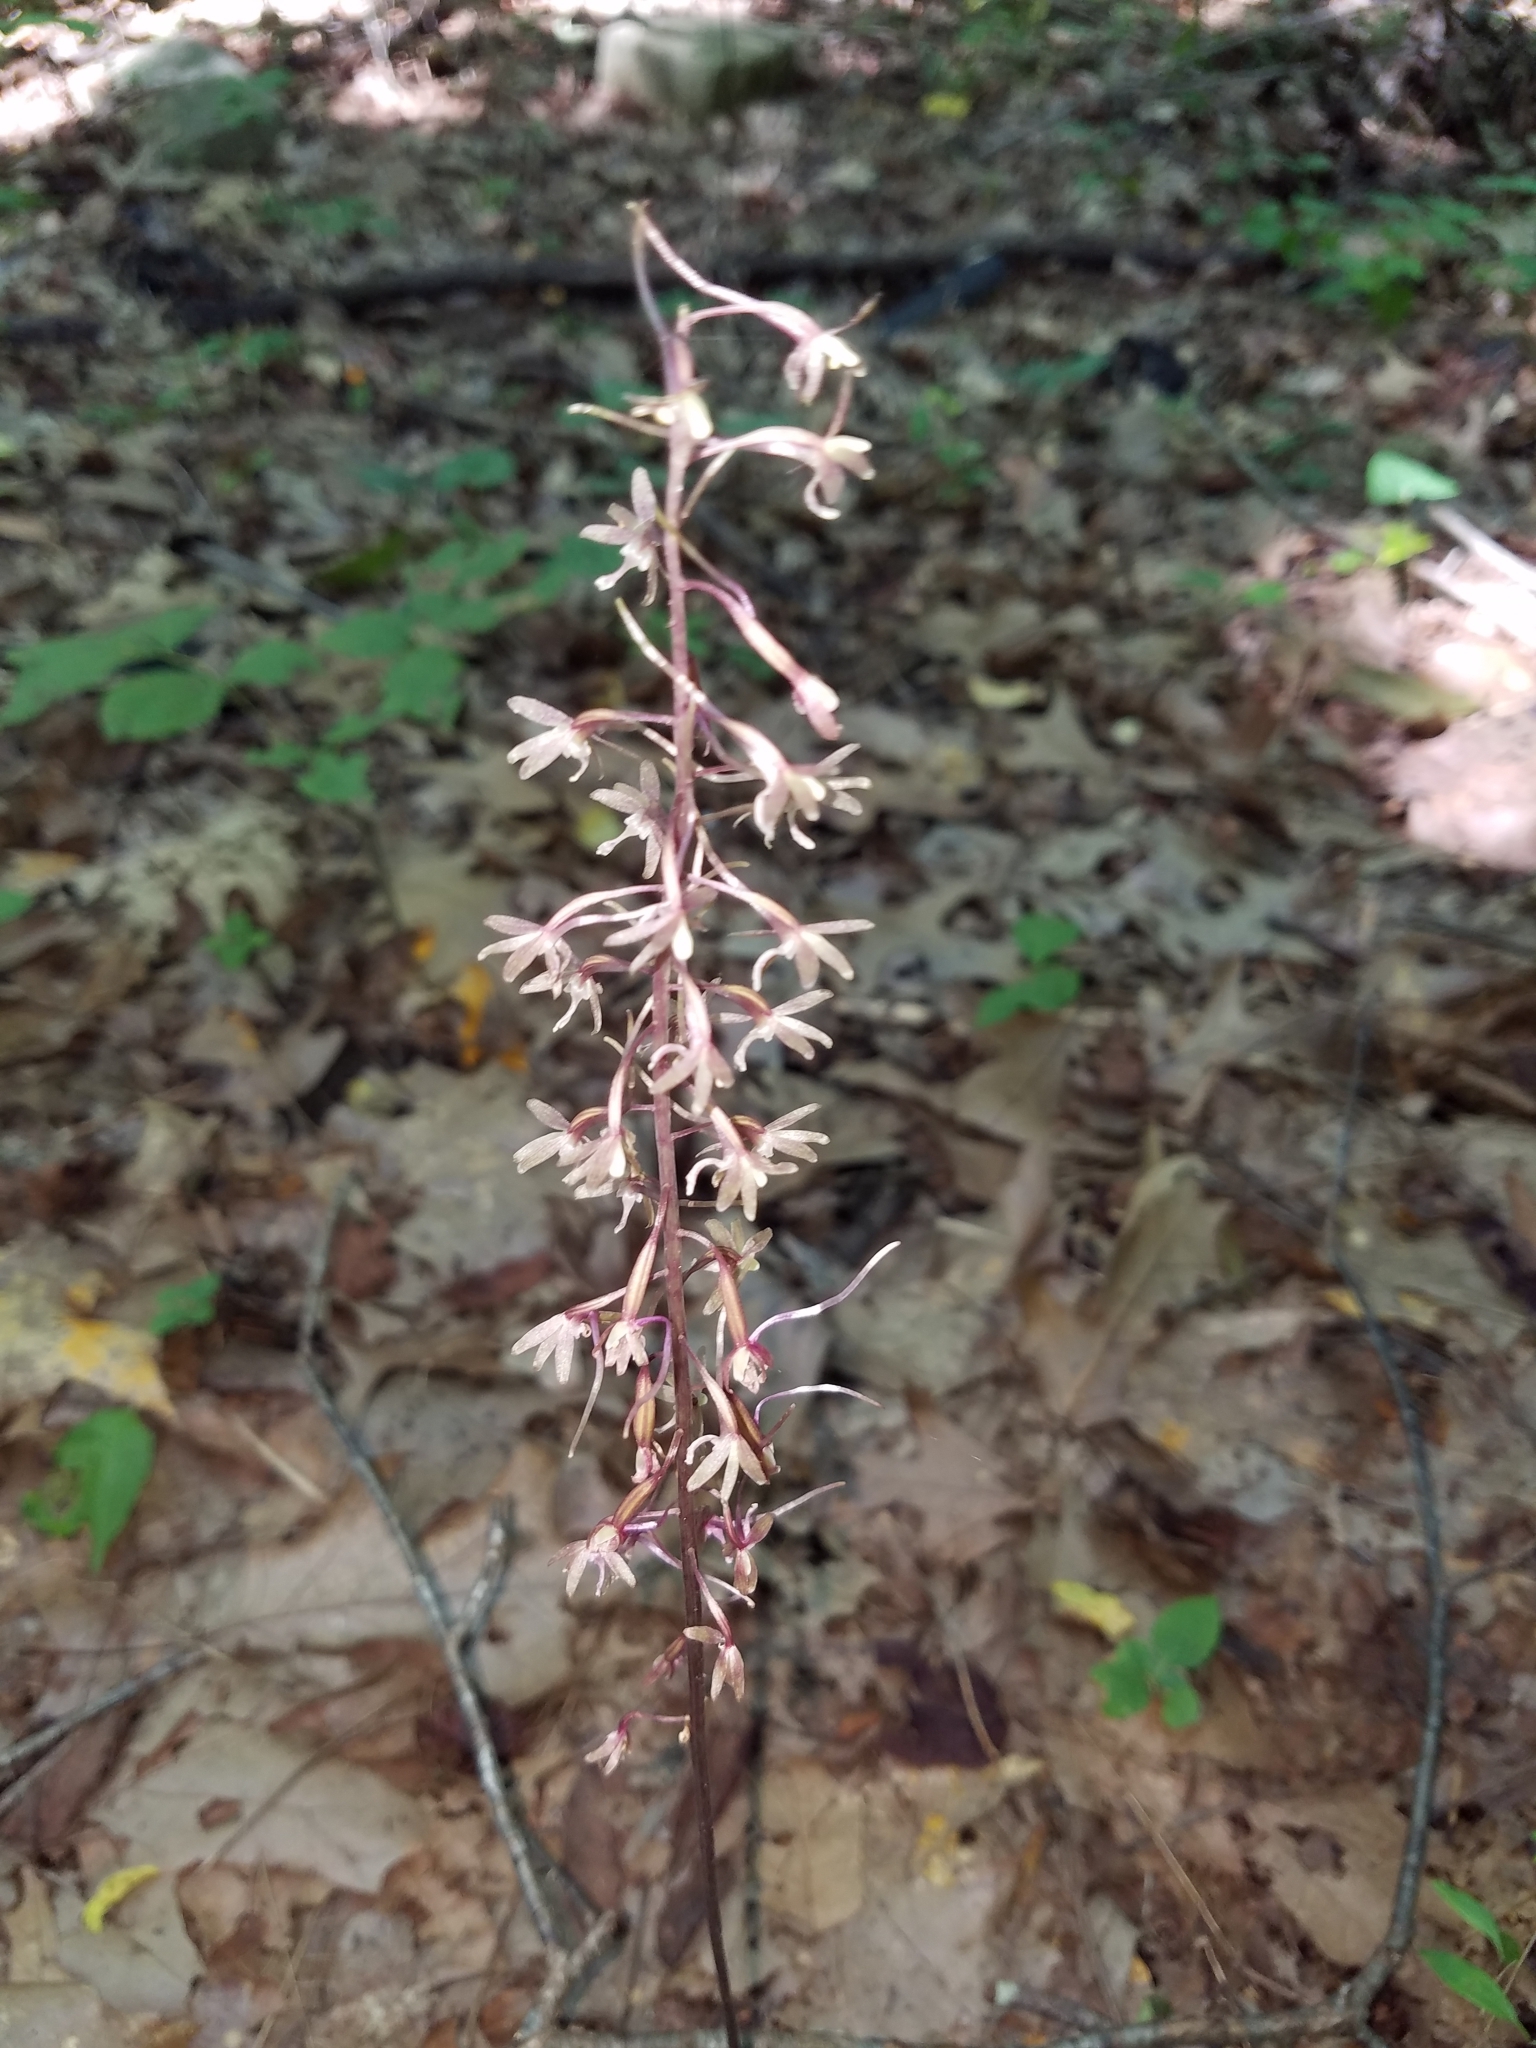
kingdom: Plantae
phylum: Tracheophyta
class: Liliopsida
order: Asparagales
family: Orchidaceae
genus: Tipularia
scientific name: Tipularia discolor
